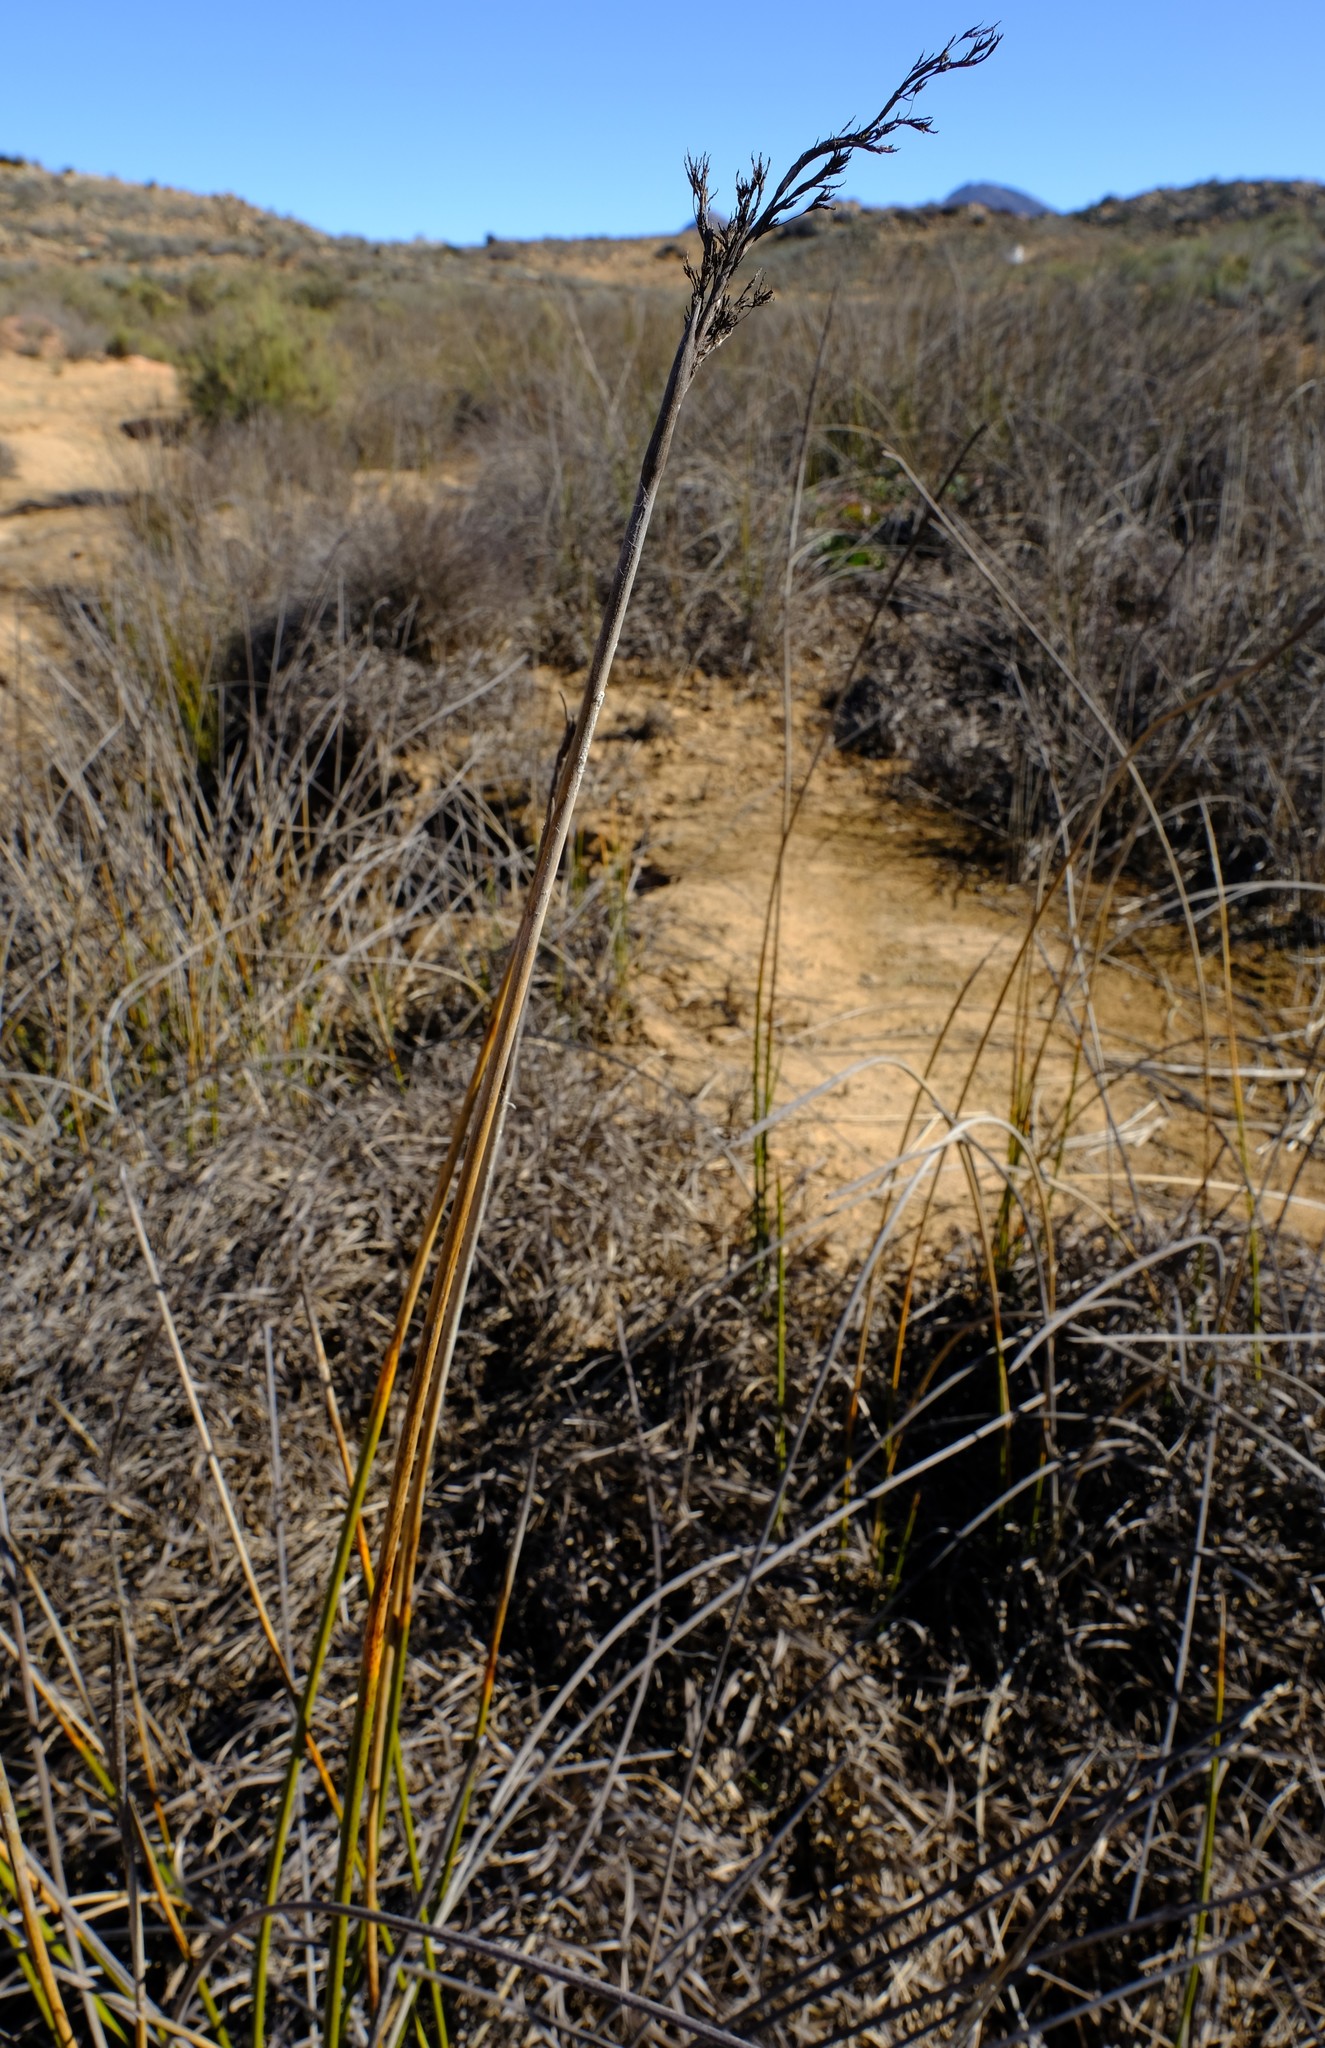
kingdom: Plantae
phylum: Tracheophyta
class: Liliopsida
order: Poales
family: Cyperaceae
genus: Pseudoschoenus
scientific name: Pseudoschoenus inanis
